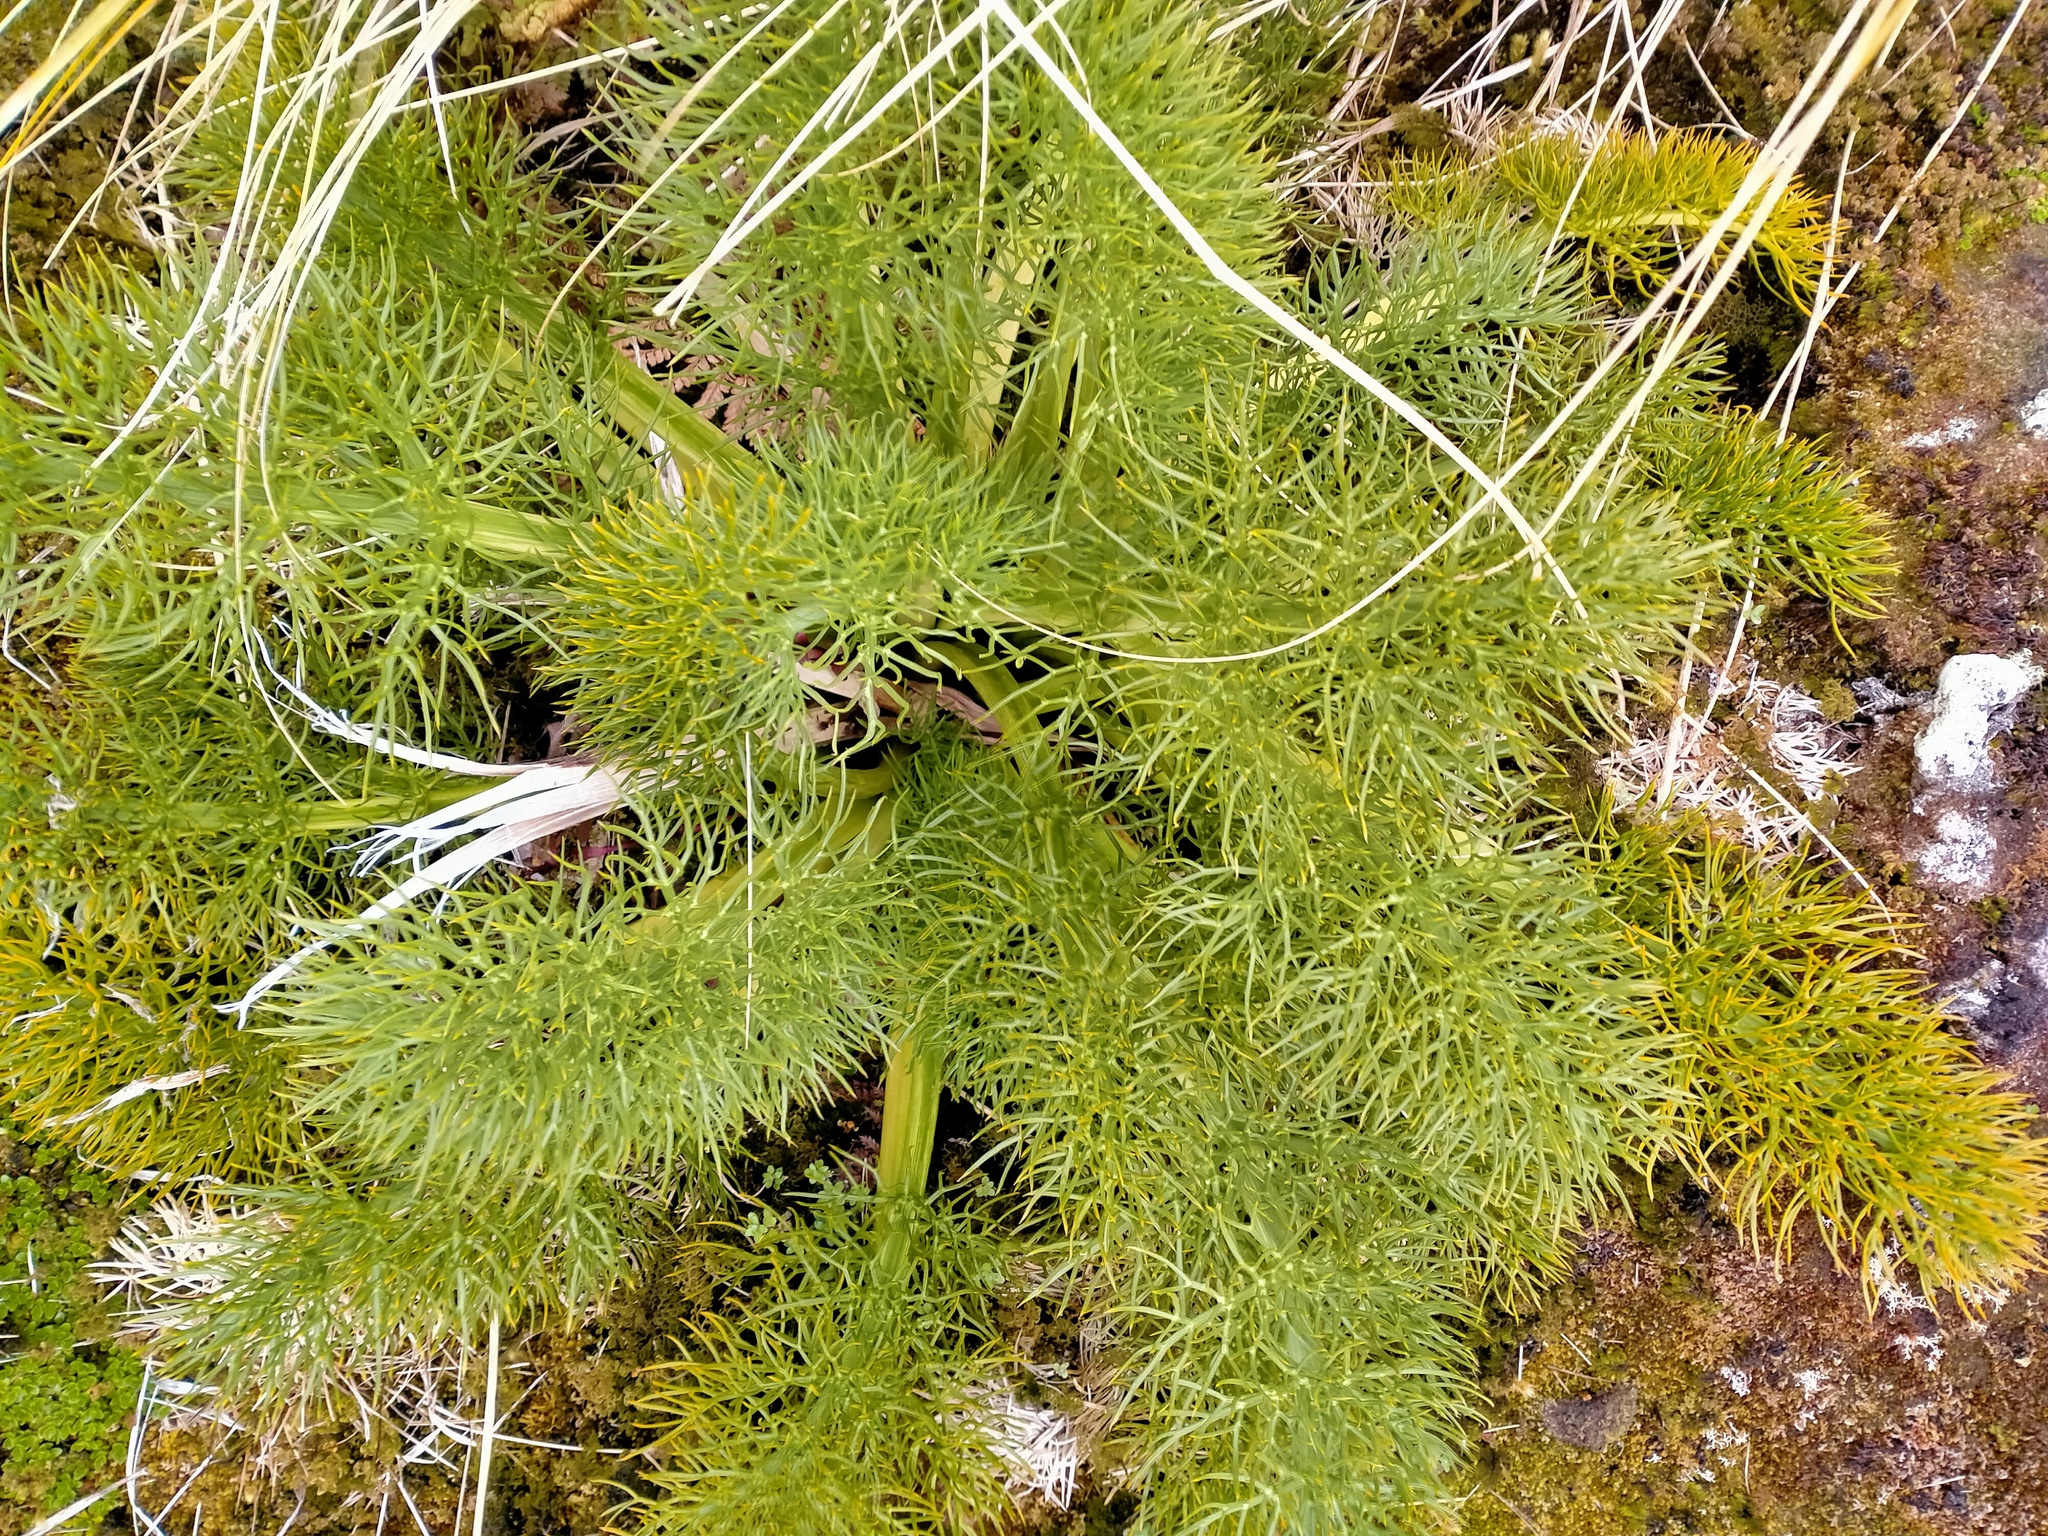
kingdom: Plantae
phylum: Tracheophyta
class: Magnoliopsida
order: Apiales
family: Apiaceae
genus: Anisotome
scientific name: Anisotome antipoda
